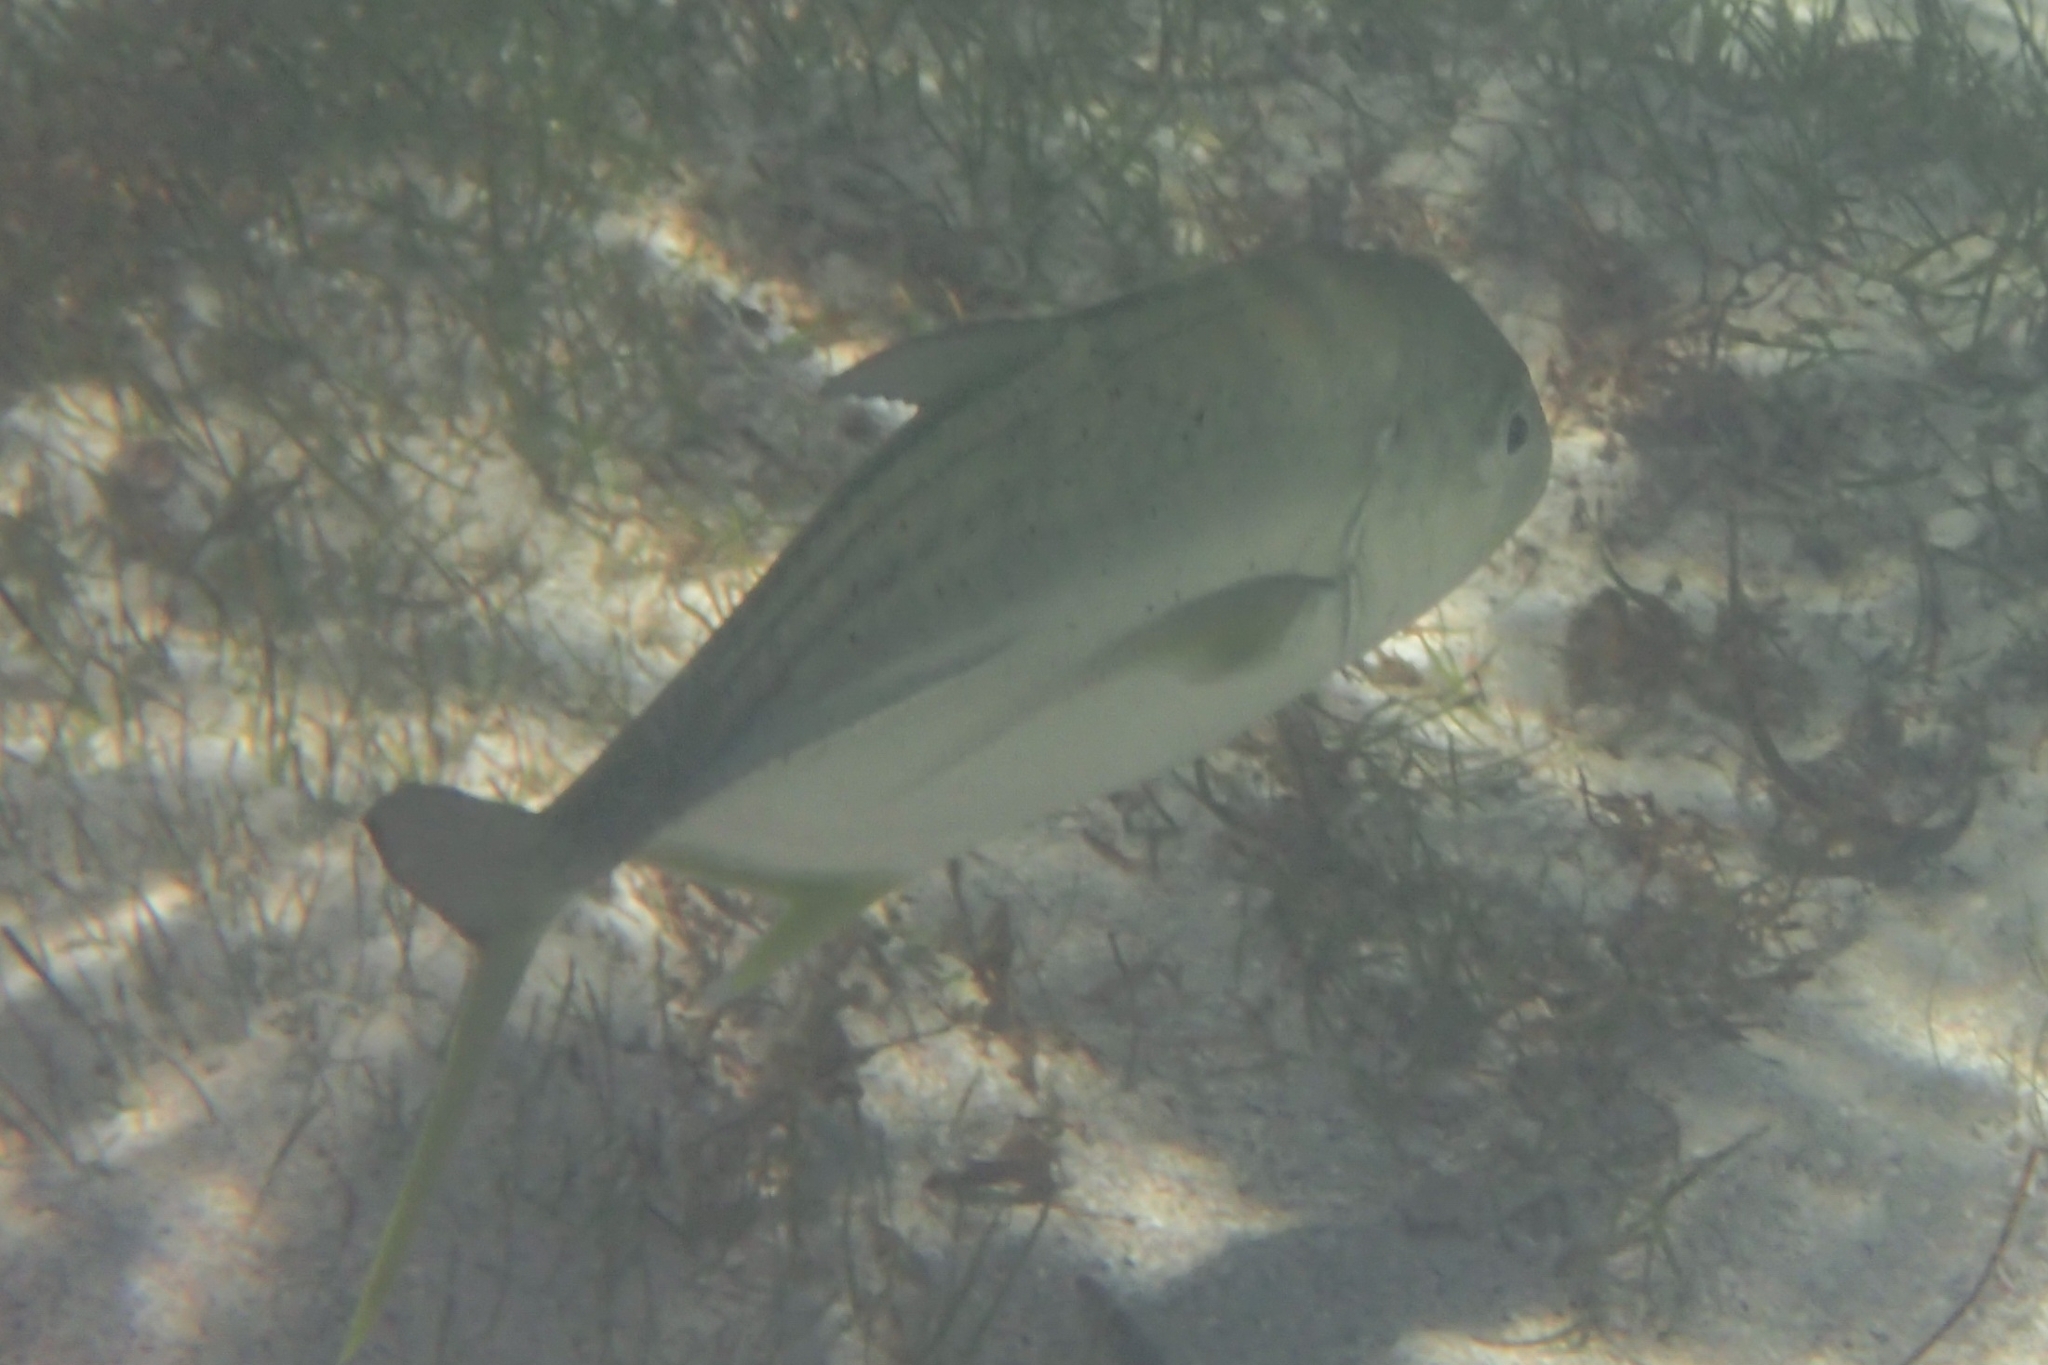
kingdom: Animalia
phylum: Chordata
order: Perciformes
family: Carangidae
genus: Caranx
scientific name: Caranx papuensis
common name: Brassy trevally
